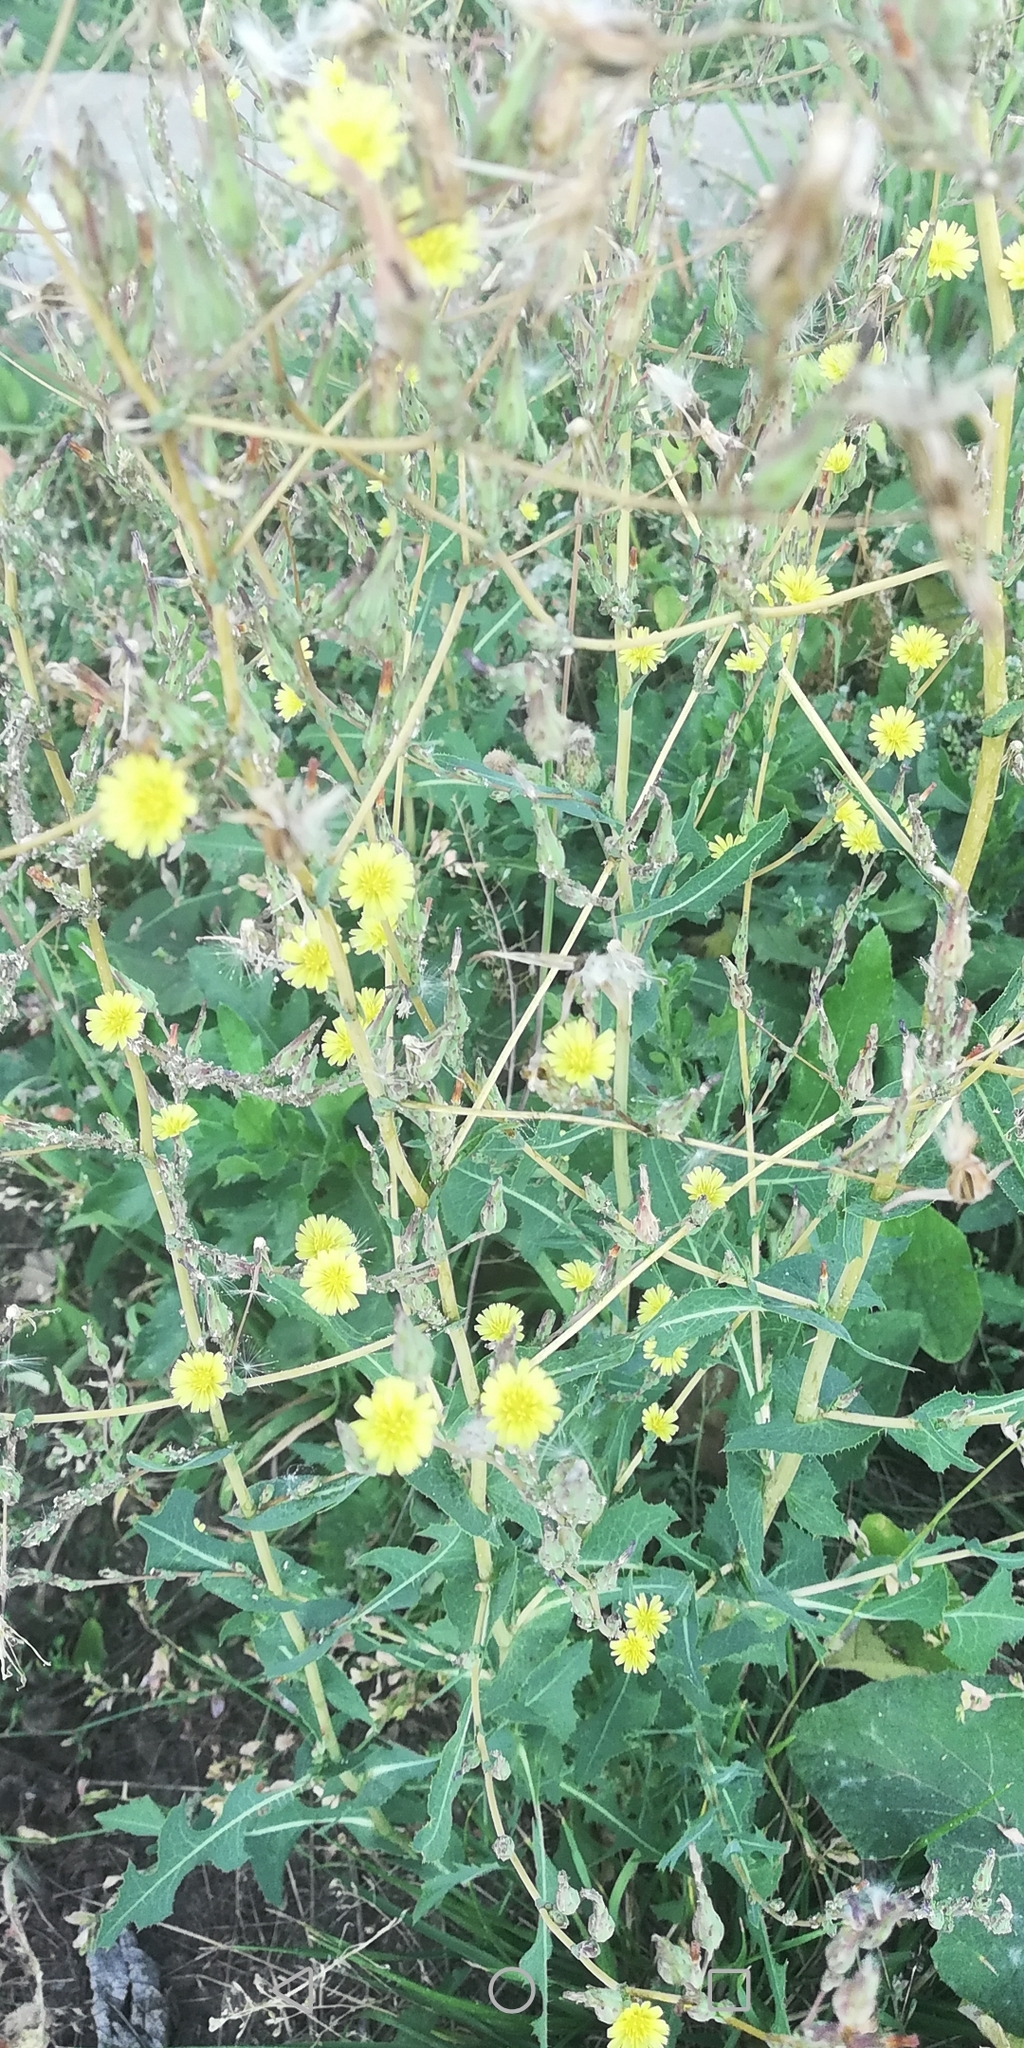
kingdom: Plantae
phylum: Tracheophyta
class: Magnoliopsida
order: Asterales
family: Asteraceae
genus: Lactuca
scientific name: Lactuca serriola
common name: Prickly lettuce
